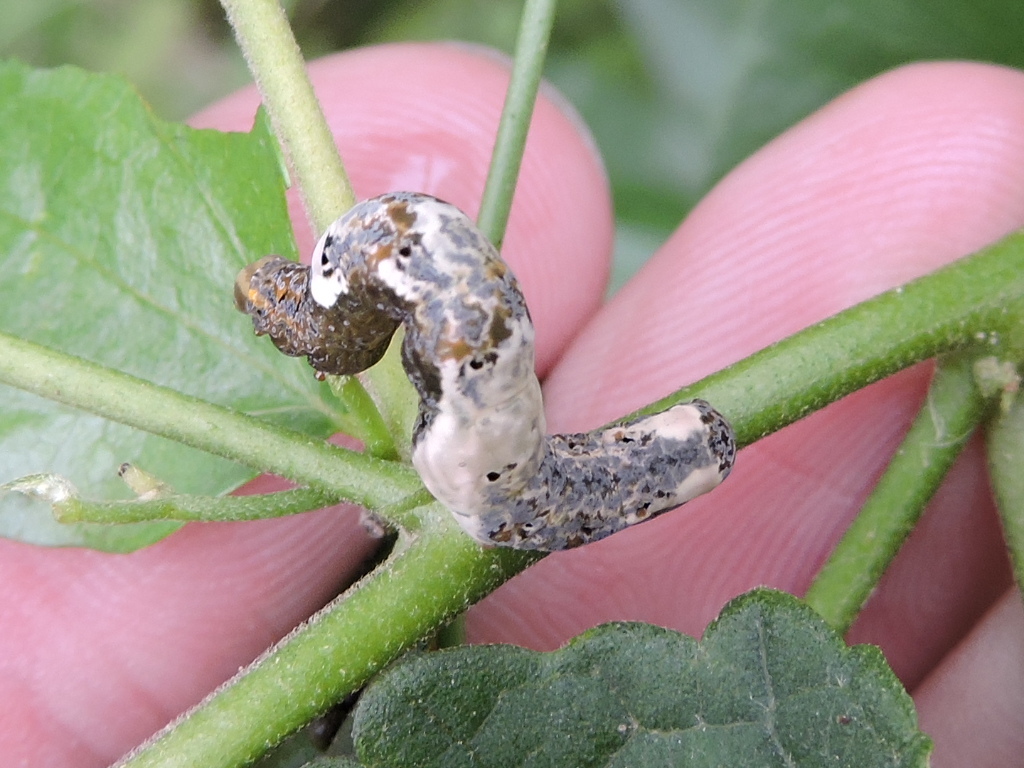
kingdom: Animalia
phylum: Arthropoda
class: Insecta
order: Lepidoptera
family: Erebidae
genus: Plusiodonta
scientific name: Plusiodonta compressipalpis
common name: Moonseed moth
